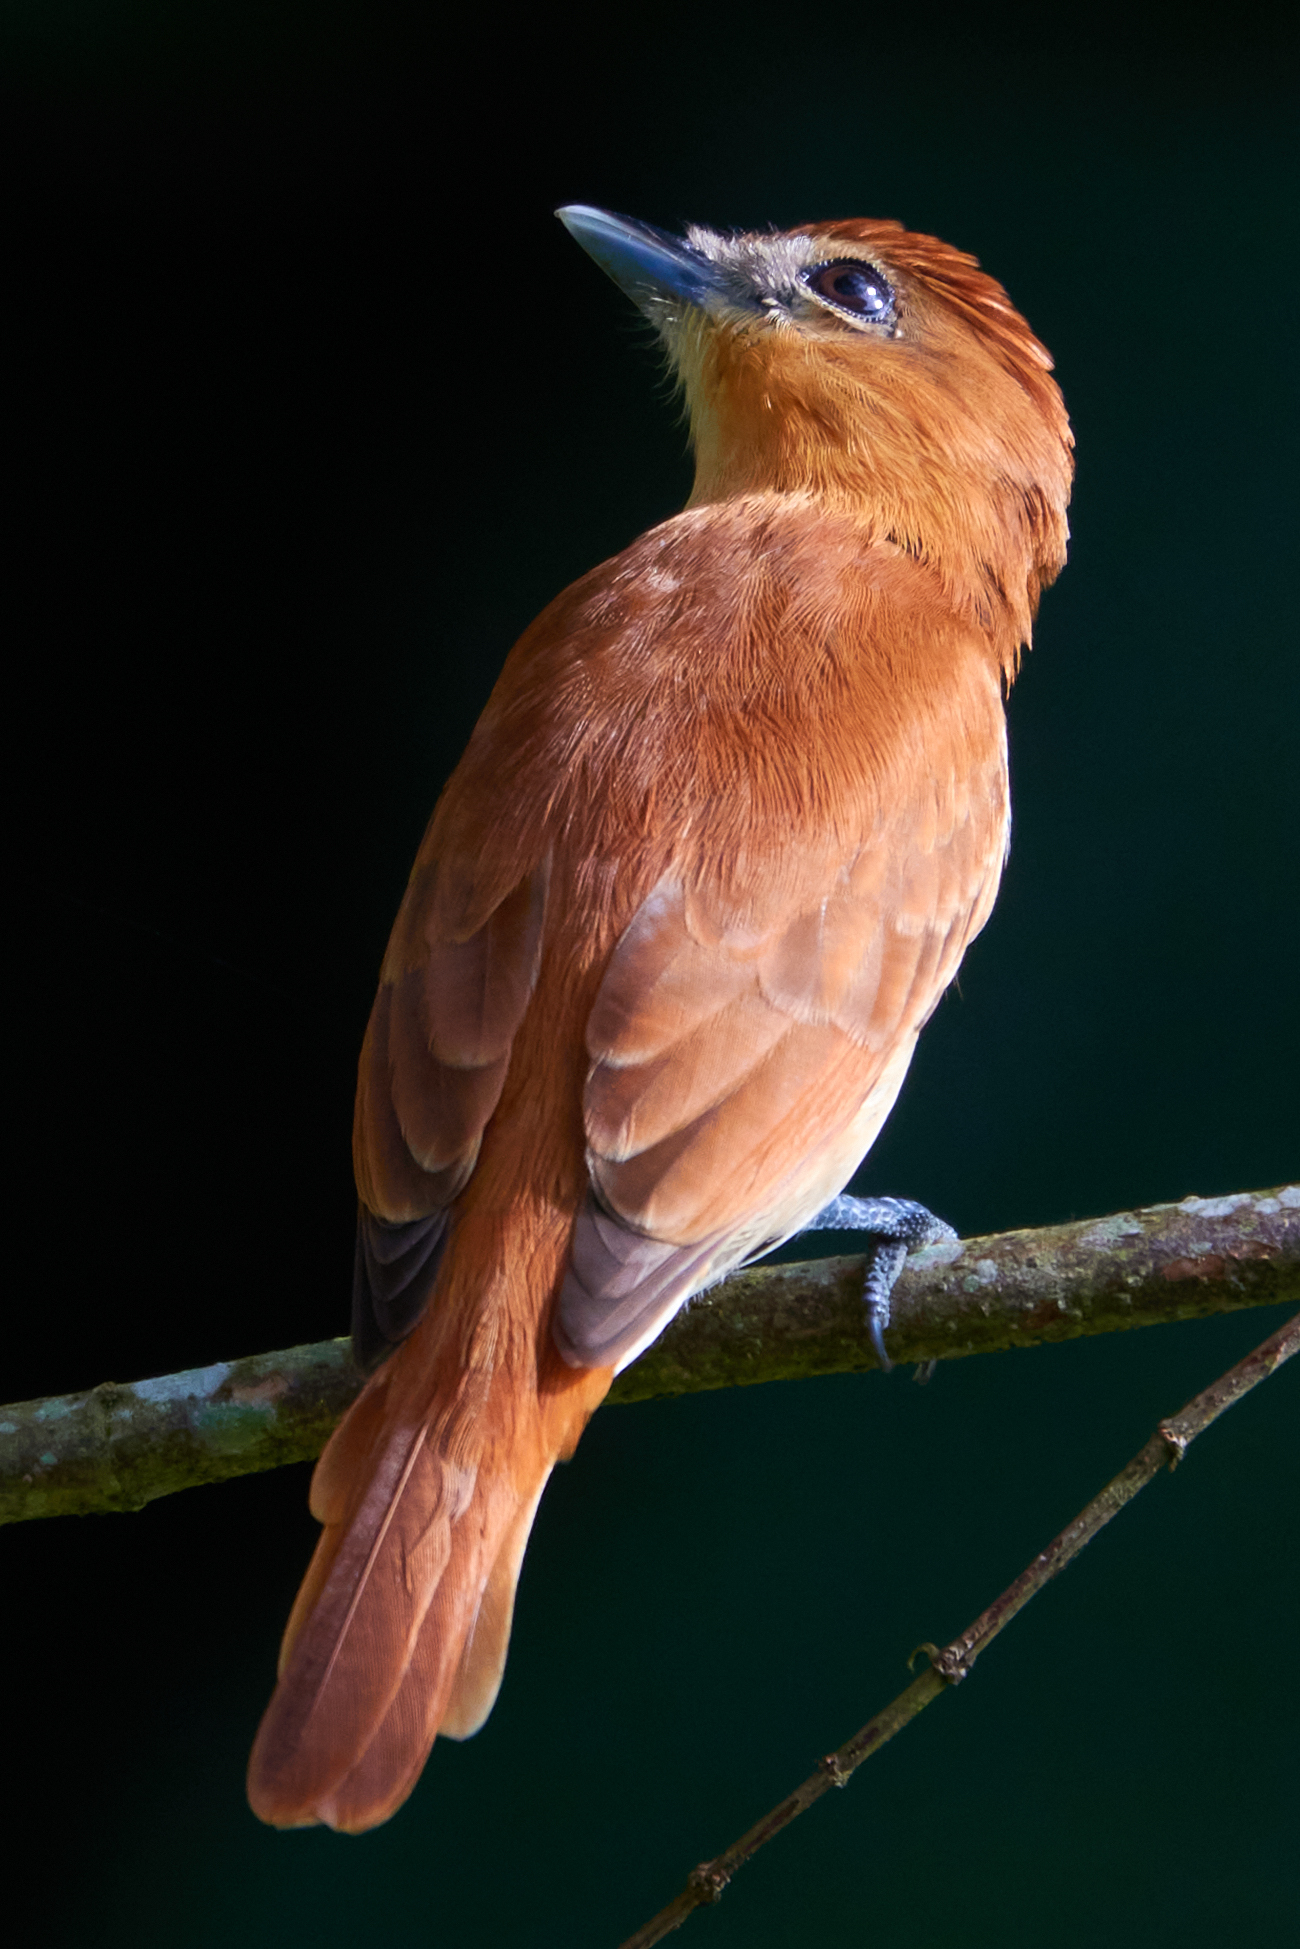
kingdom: Animalia
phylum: Chordata
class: Aves
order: Passeriformes
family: Cotingidae
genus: Pachyramphus
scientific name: Pachyramphus cinnamomeus
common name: Cinnamon becard
